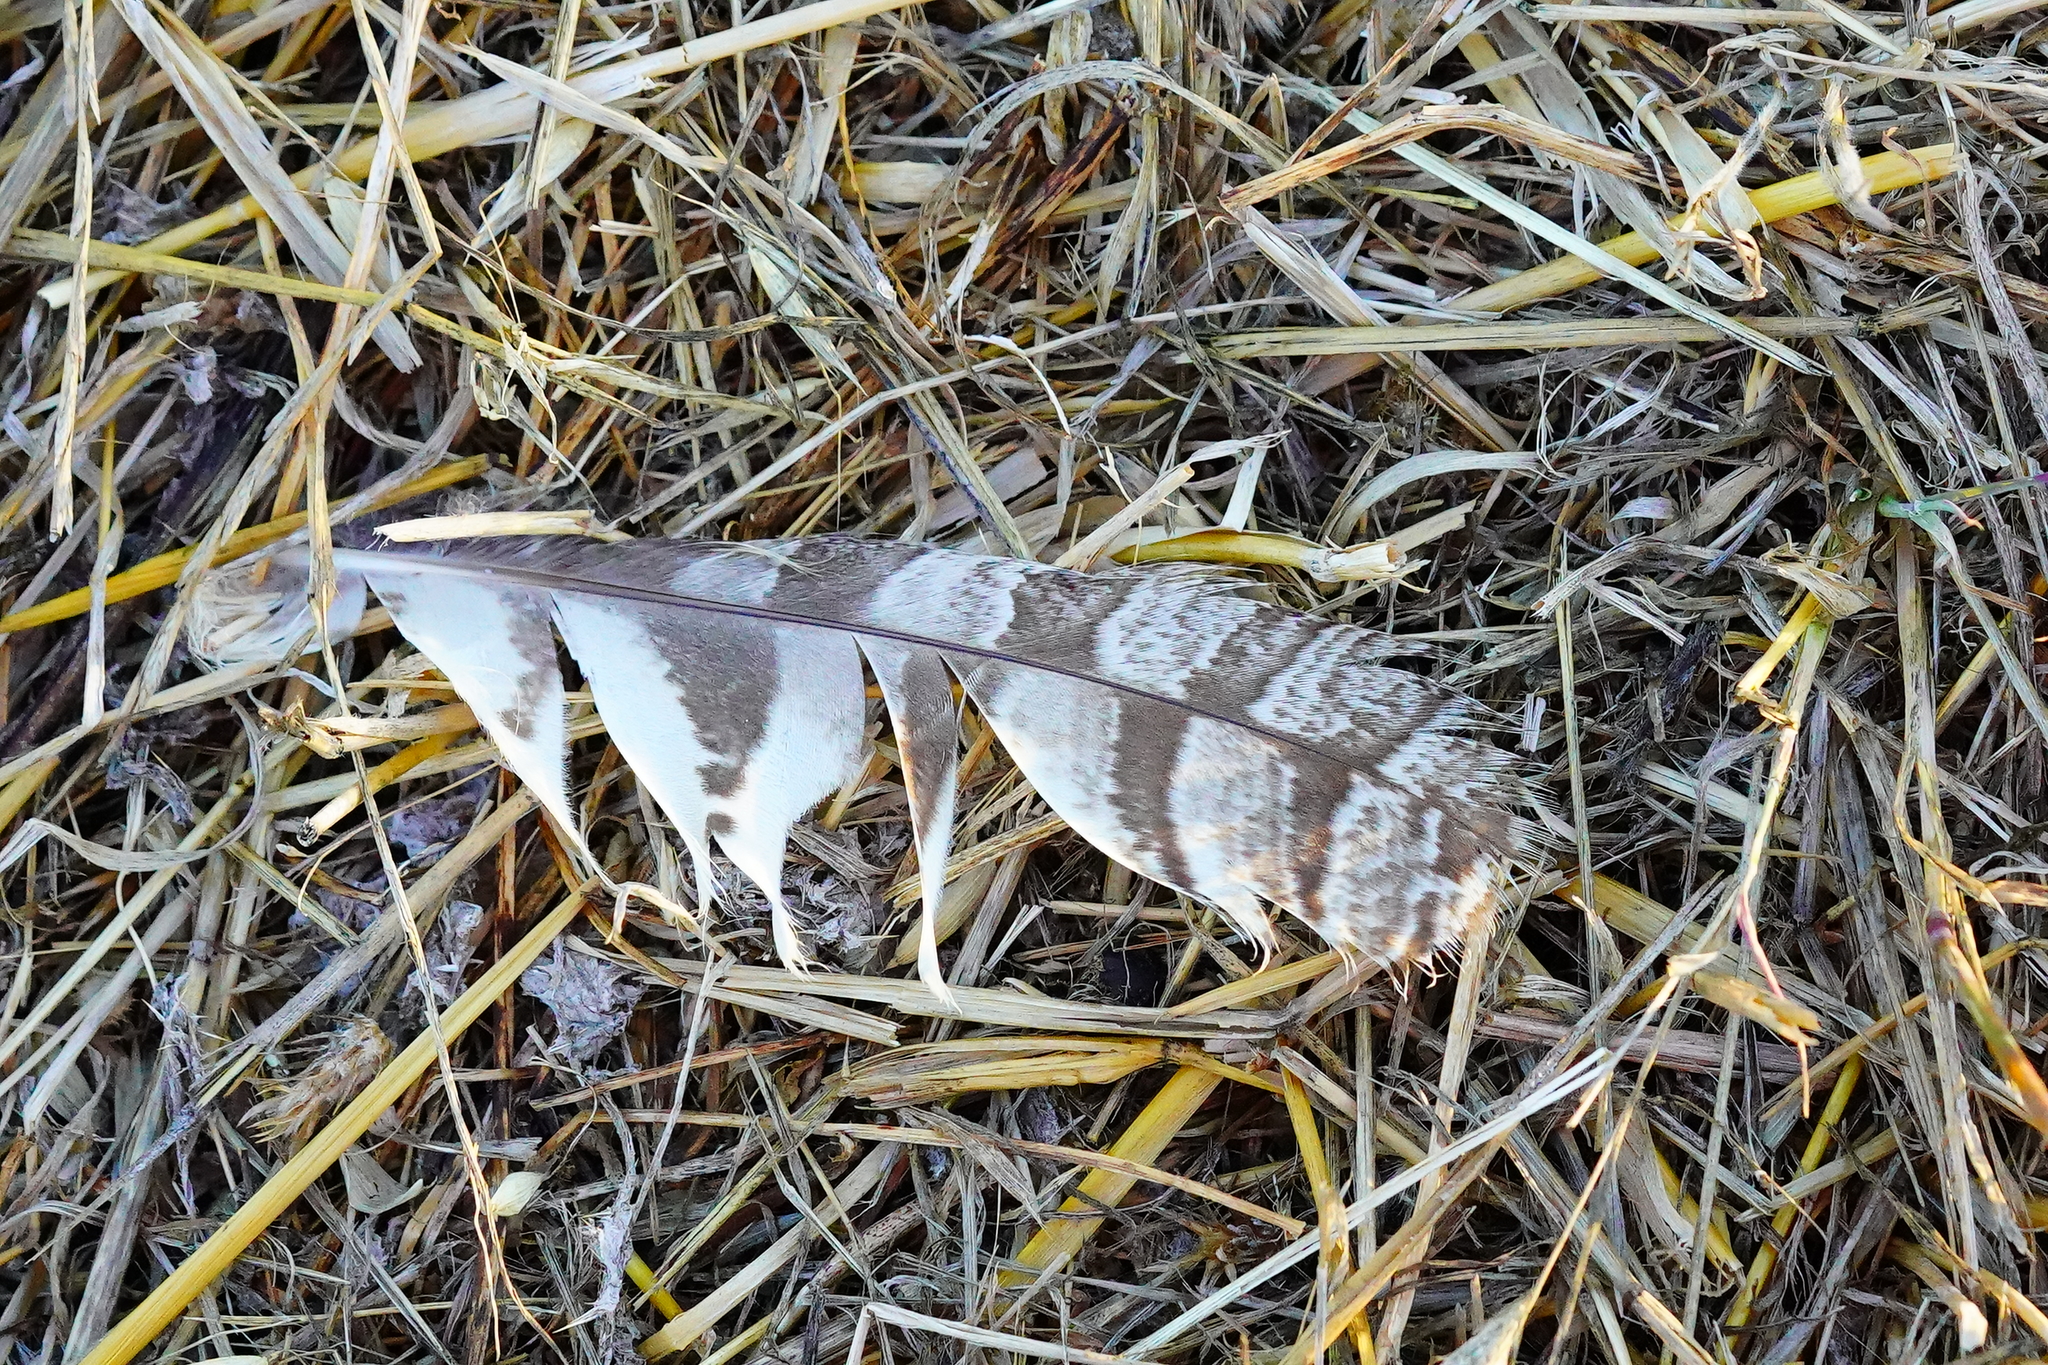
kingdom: Animalia
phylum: Chordata
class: Aves
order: Strigiformes
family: Strigidae
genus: Bubo
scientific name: Bubo virginianus
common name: Great horned owl
